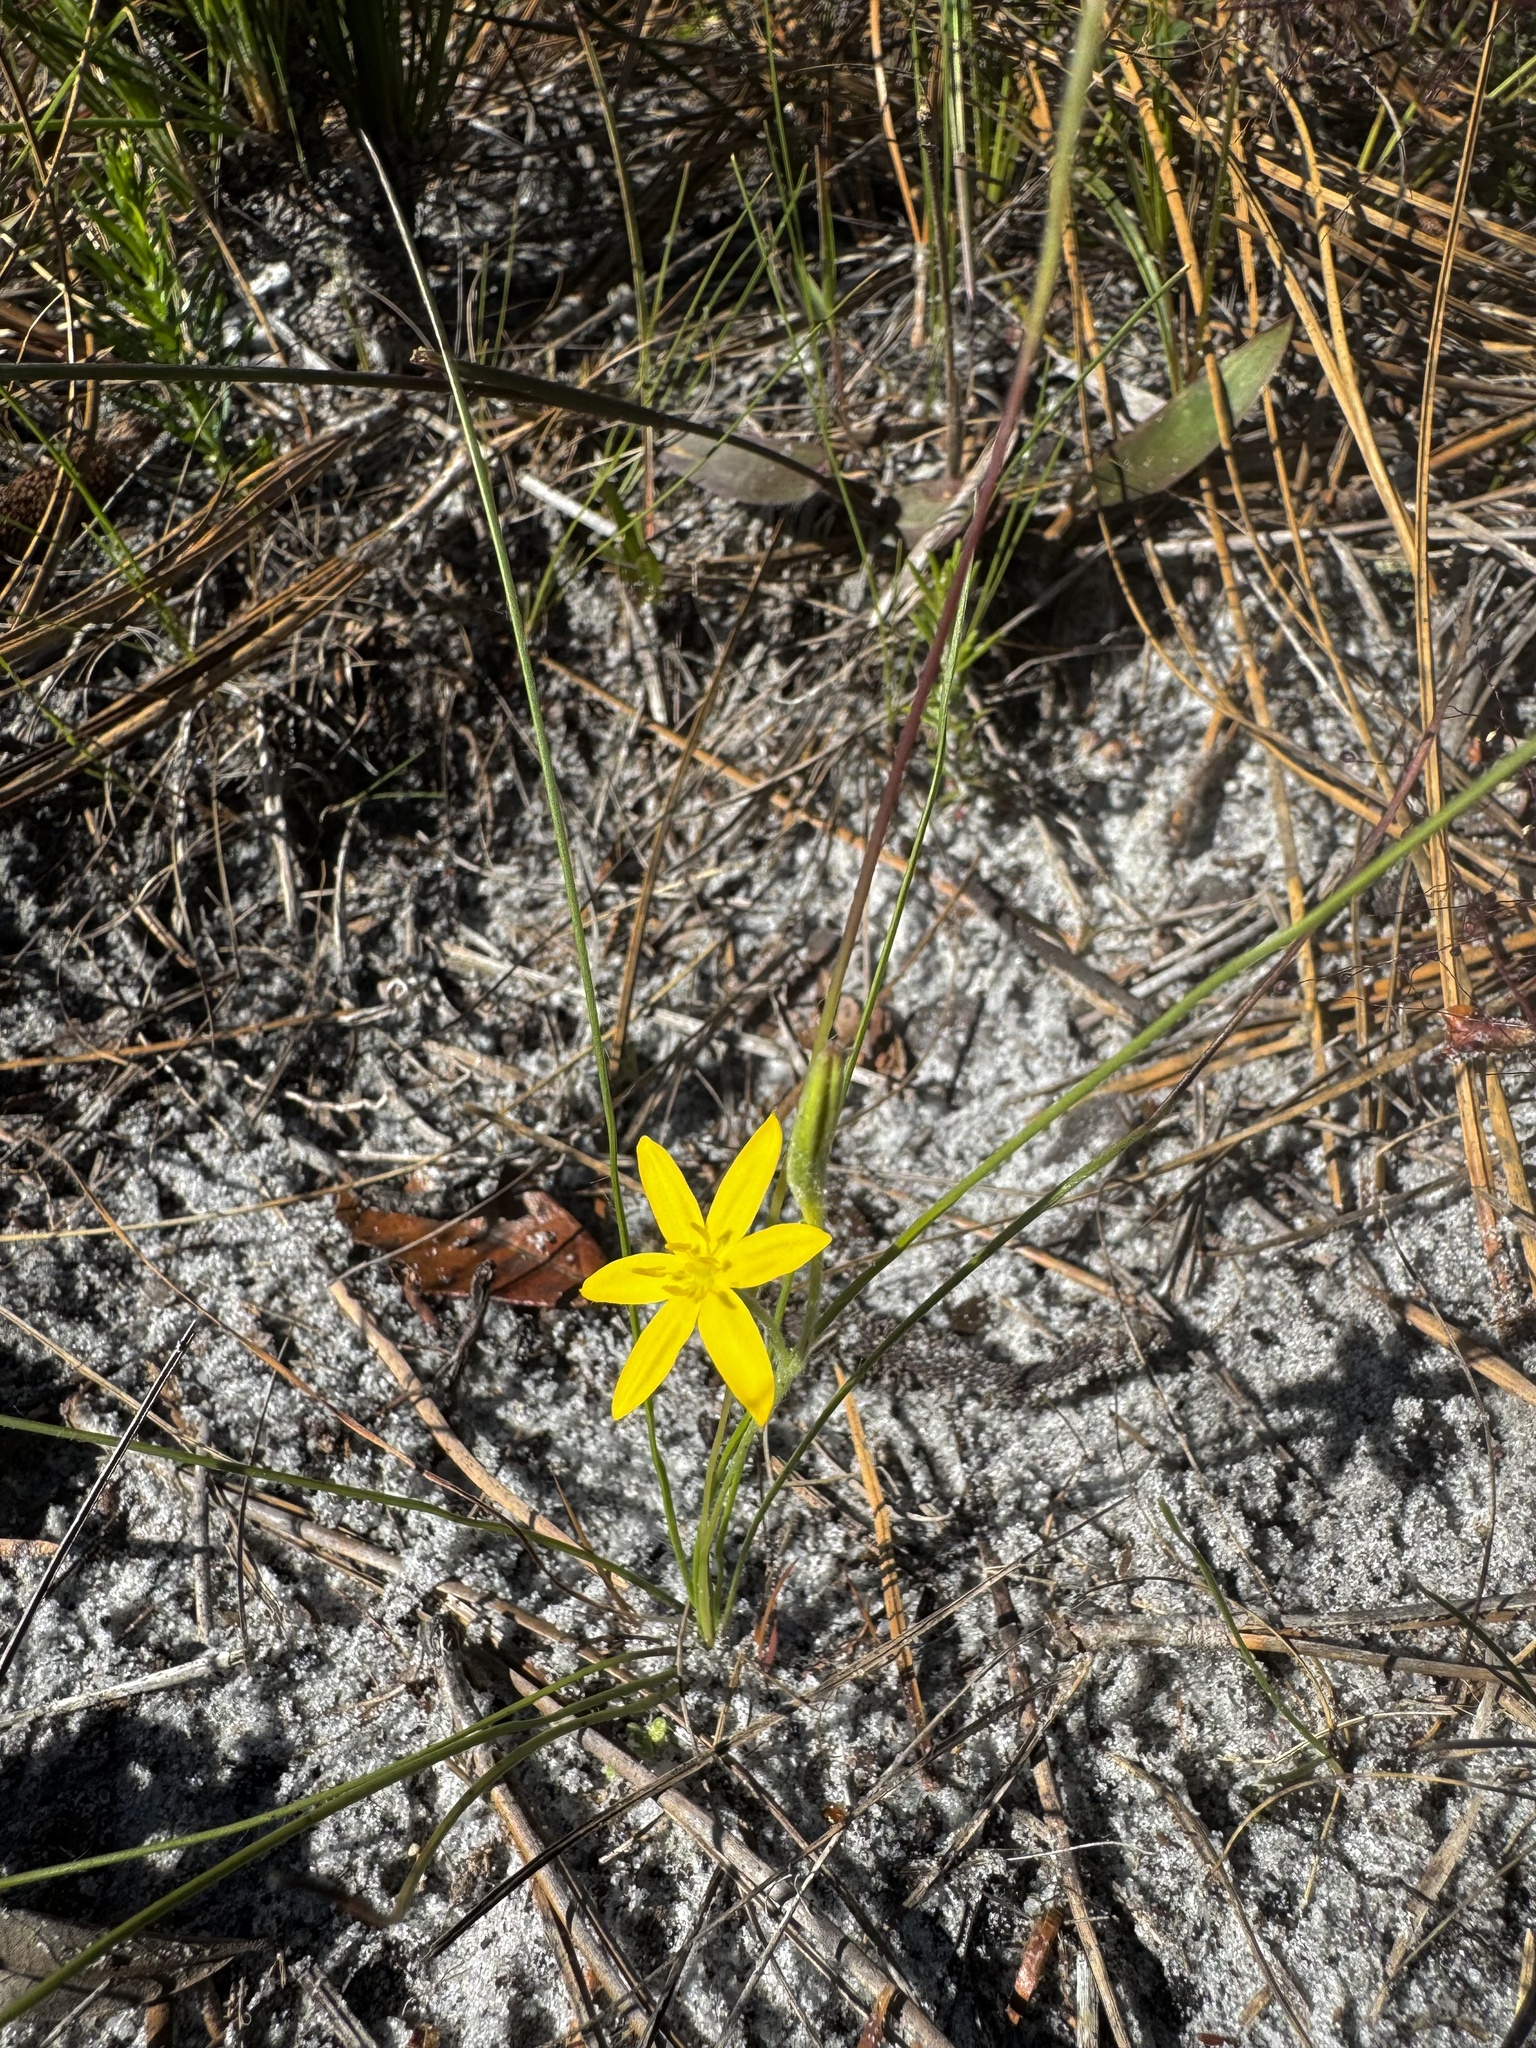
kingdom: Plantae
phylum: Tracheophyta
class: Liliopsida
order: Asparagales
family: Hypoxidaceae
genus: Hypoxis
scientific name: Hypoxis juncea
